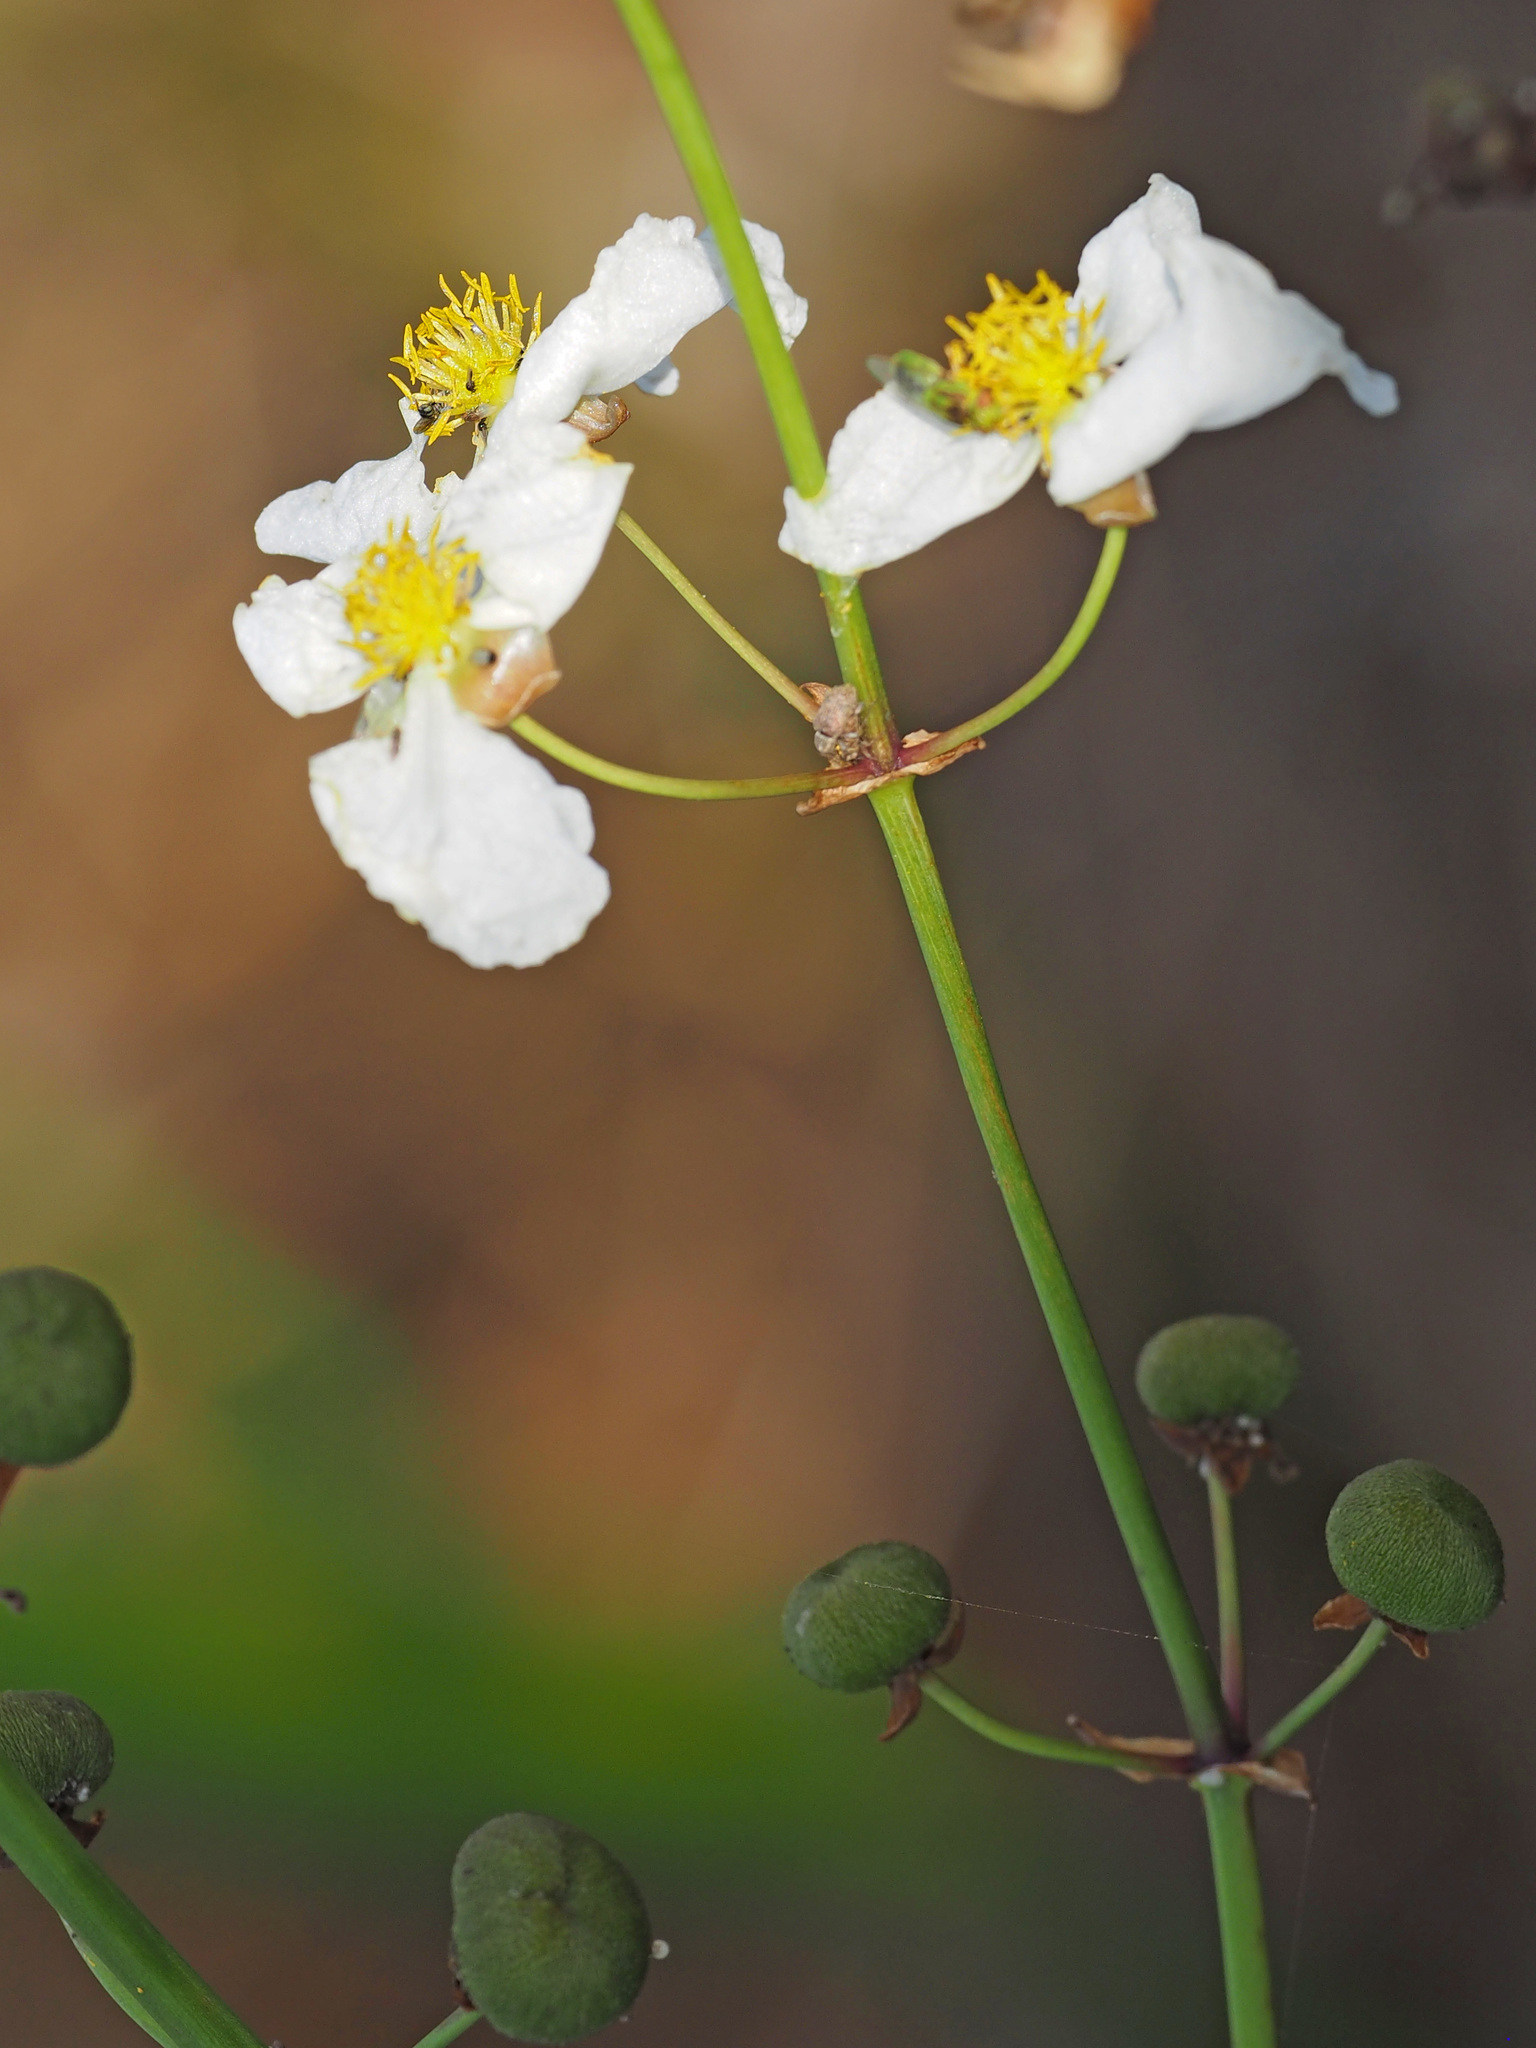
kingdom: Plantae
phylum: Tracheophyta
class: Liliopsida
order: Alismatales
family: Alismataceae
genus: Sagittaria
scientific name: Sagittaria lancifolia
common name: Lance-leaf arrowhead
